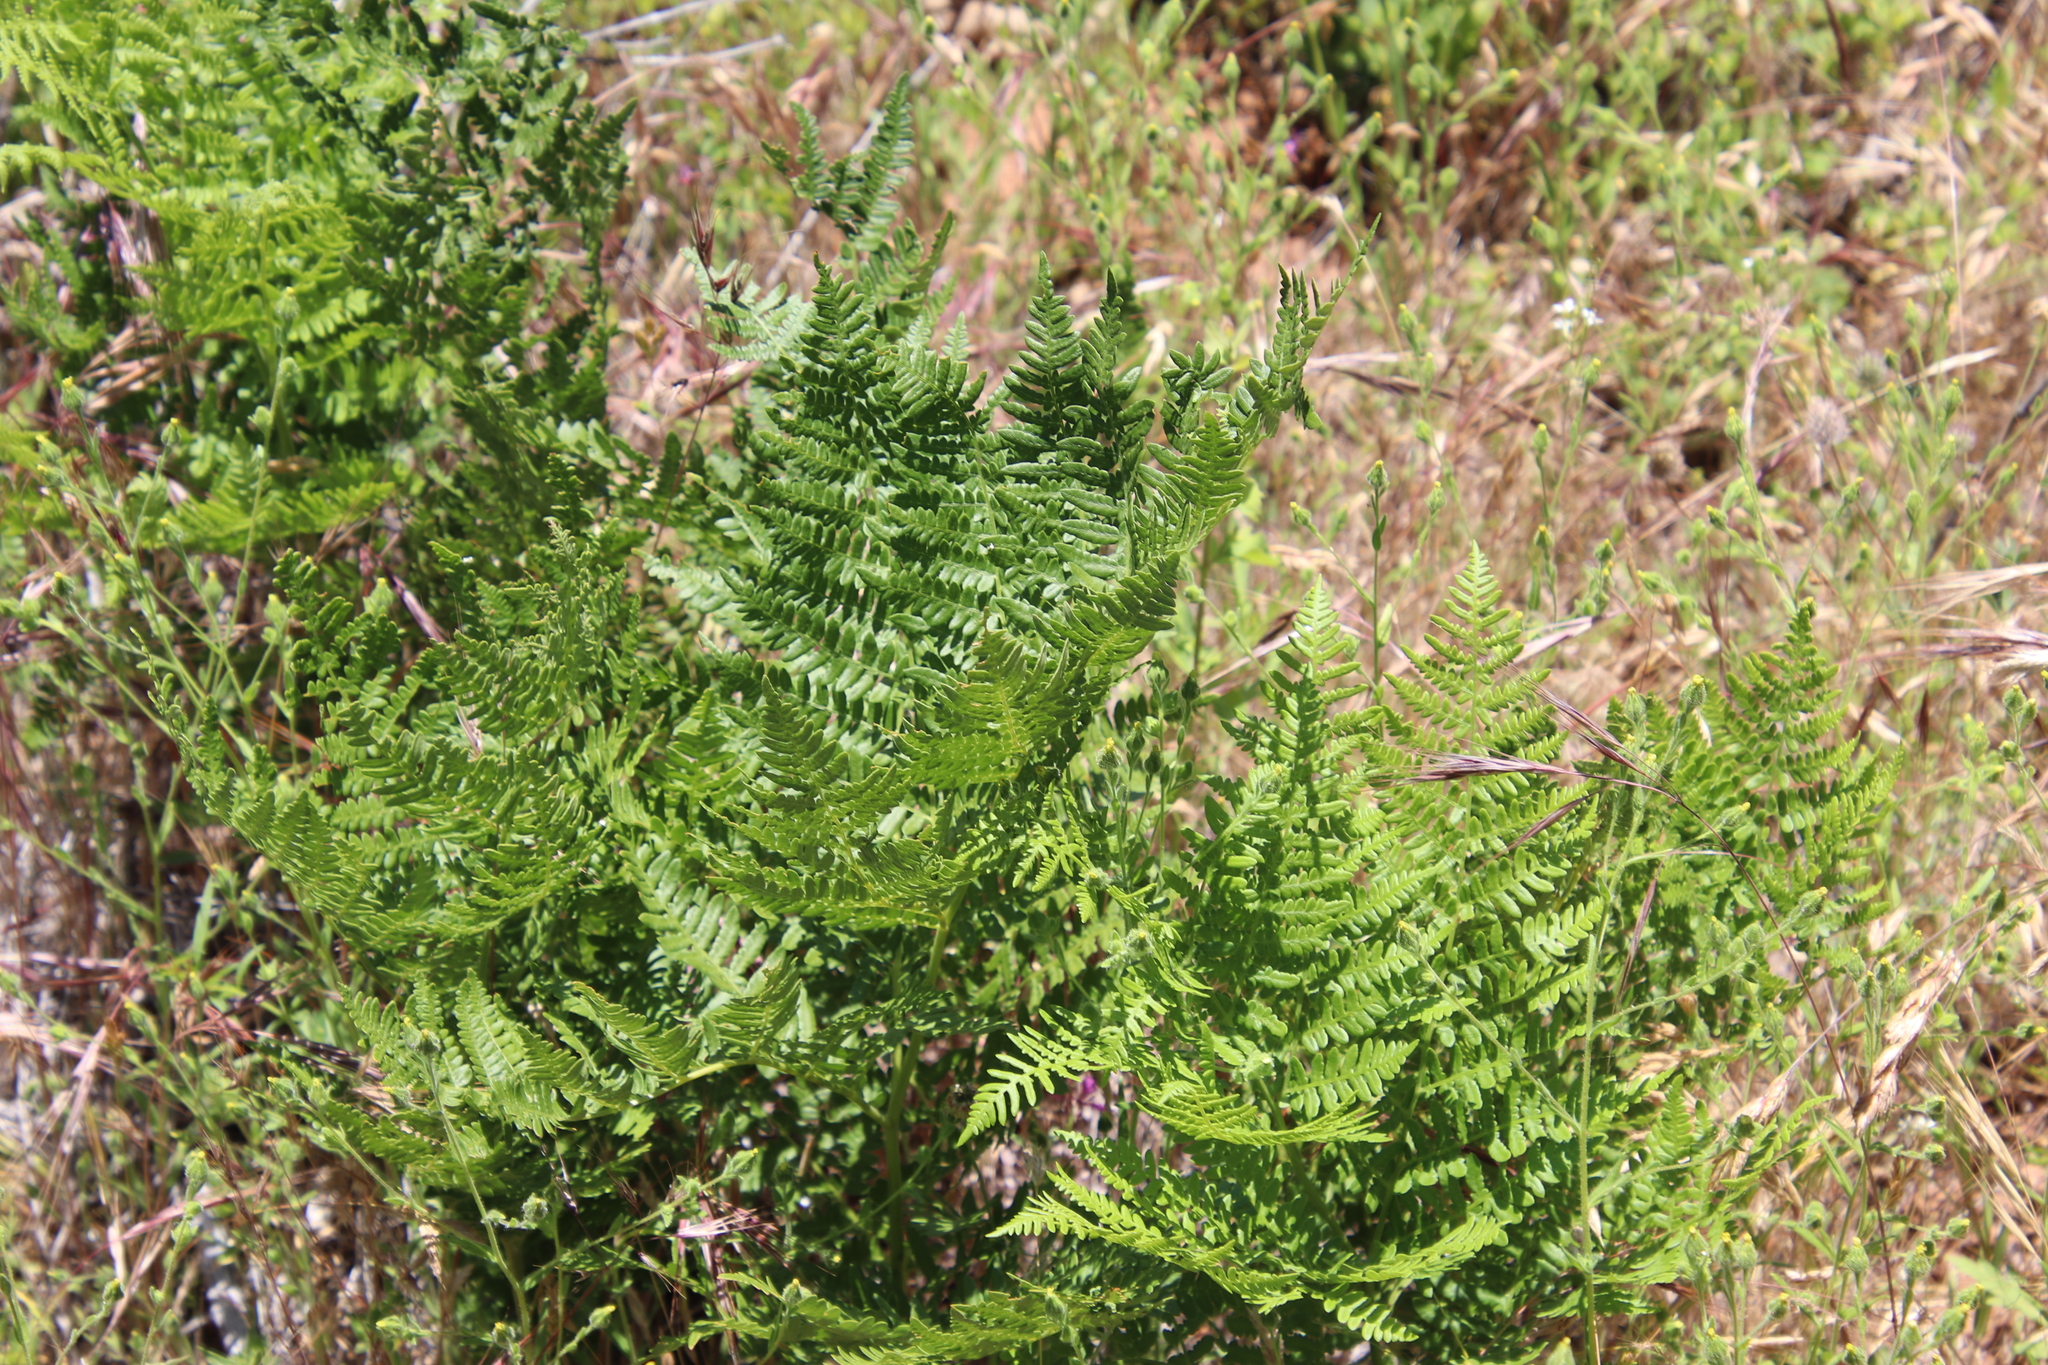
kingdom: Plantae
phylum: Tracheophyta
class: Polypodiopsida
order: Polypodiales
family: Dennstaedtiaceae
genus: Pteridium
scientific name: Pteridium aquilinum
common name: Bracken
